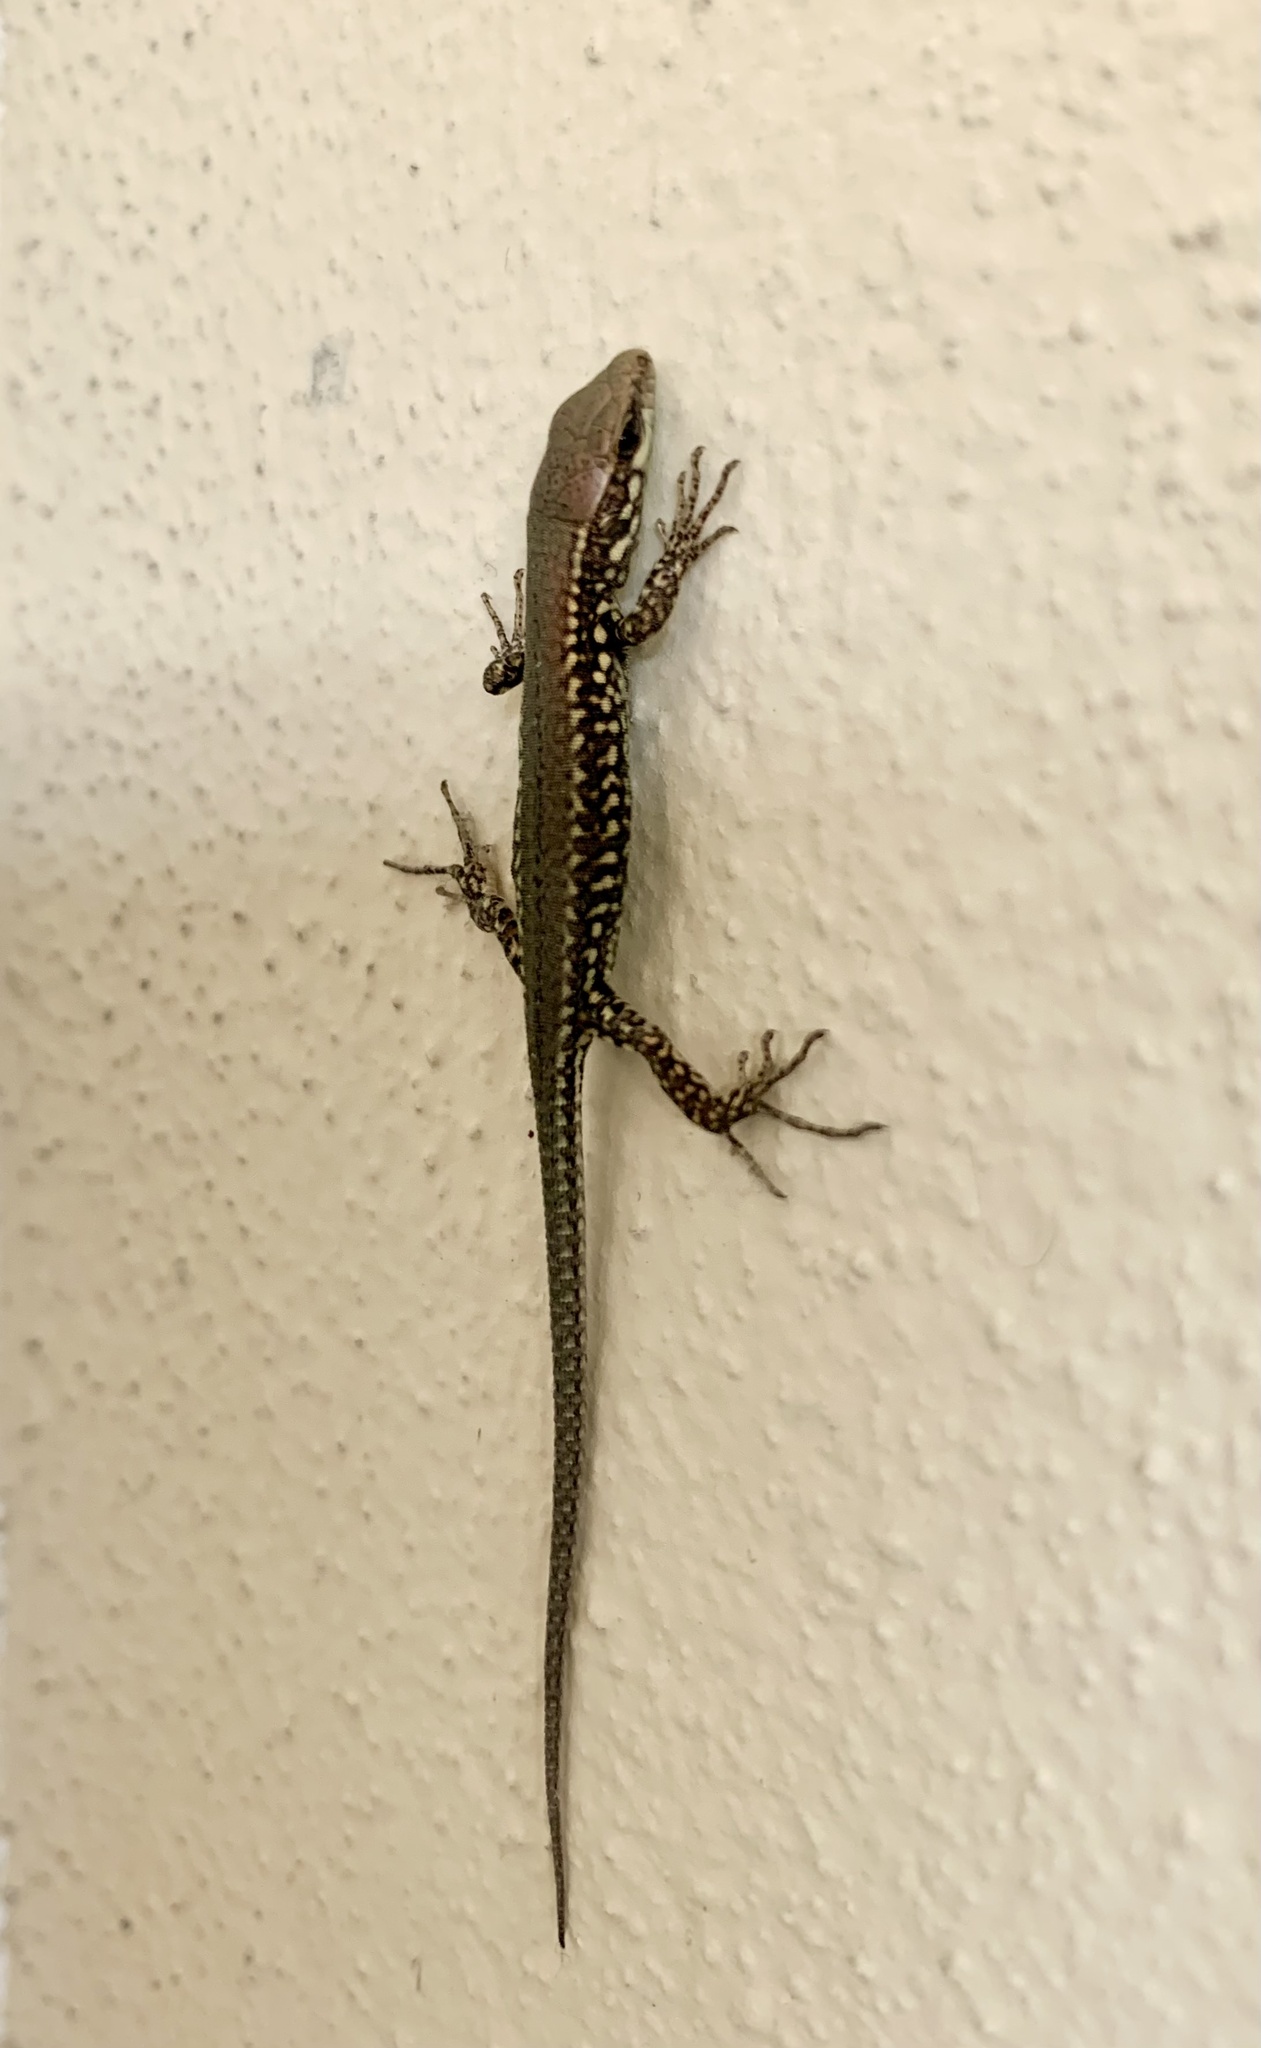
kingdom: Animalia
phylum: Chordata
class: Squamata
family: Lacertidae
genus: Podarcis
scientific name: Podarcis muralis
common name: Common wall lizard
